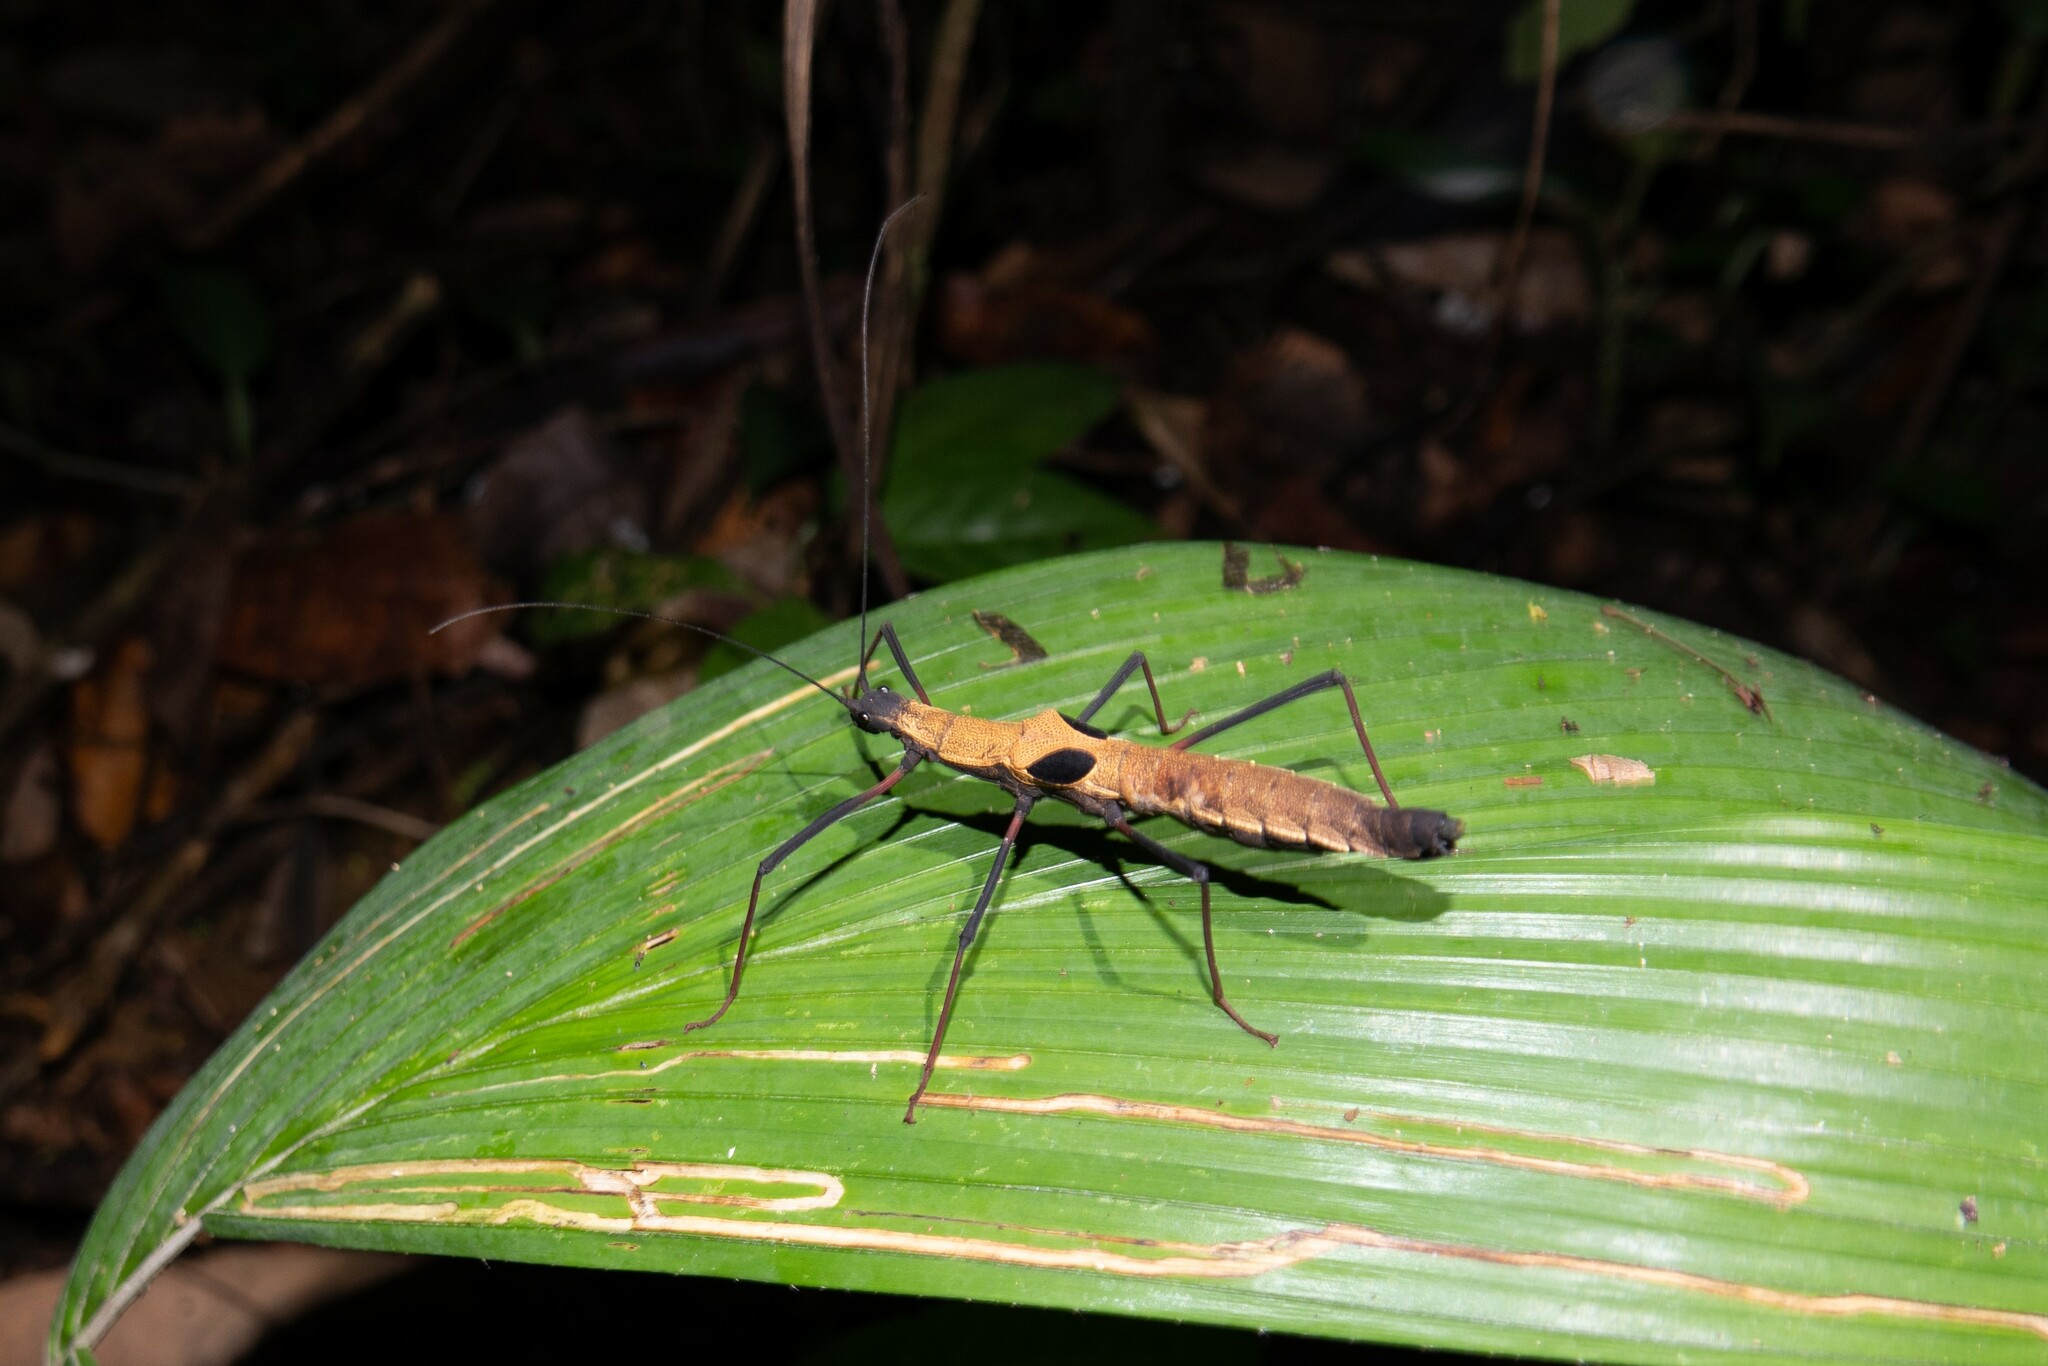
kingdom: Animalia
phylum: Arthropoda
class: Insecta
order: Phasmida
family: Pseudophasmatidae
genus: Pseudophasma
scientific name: Pseudophasma scabriusculum
